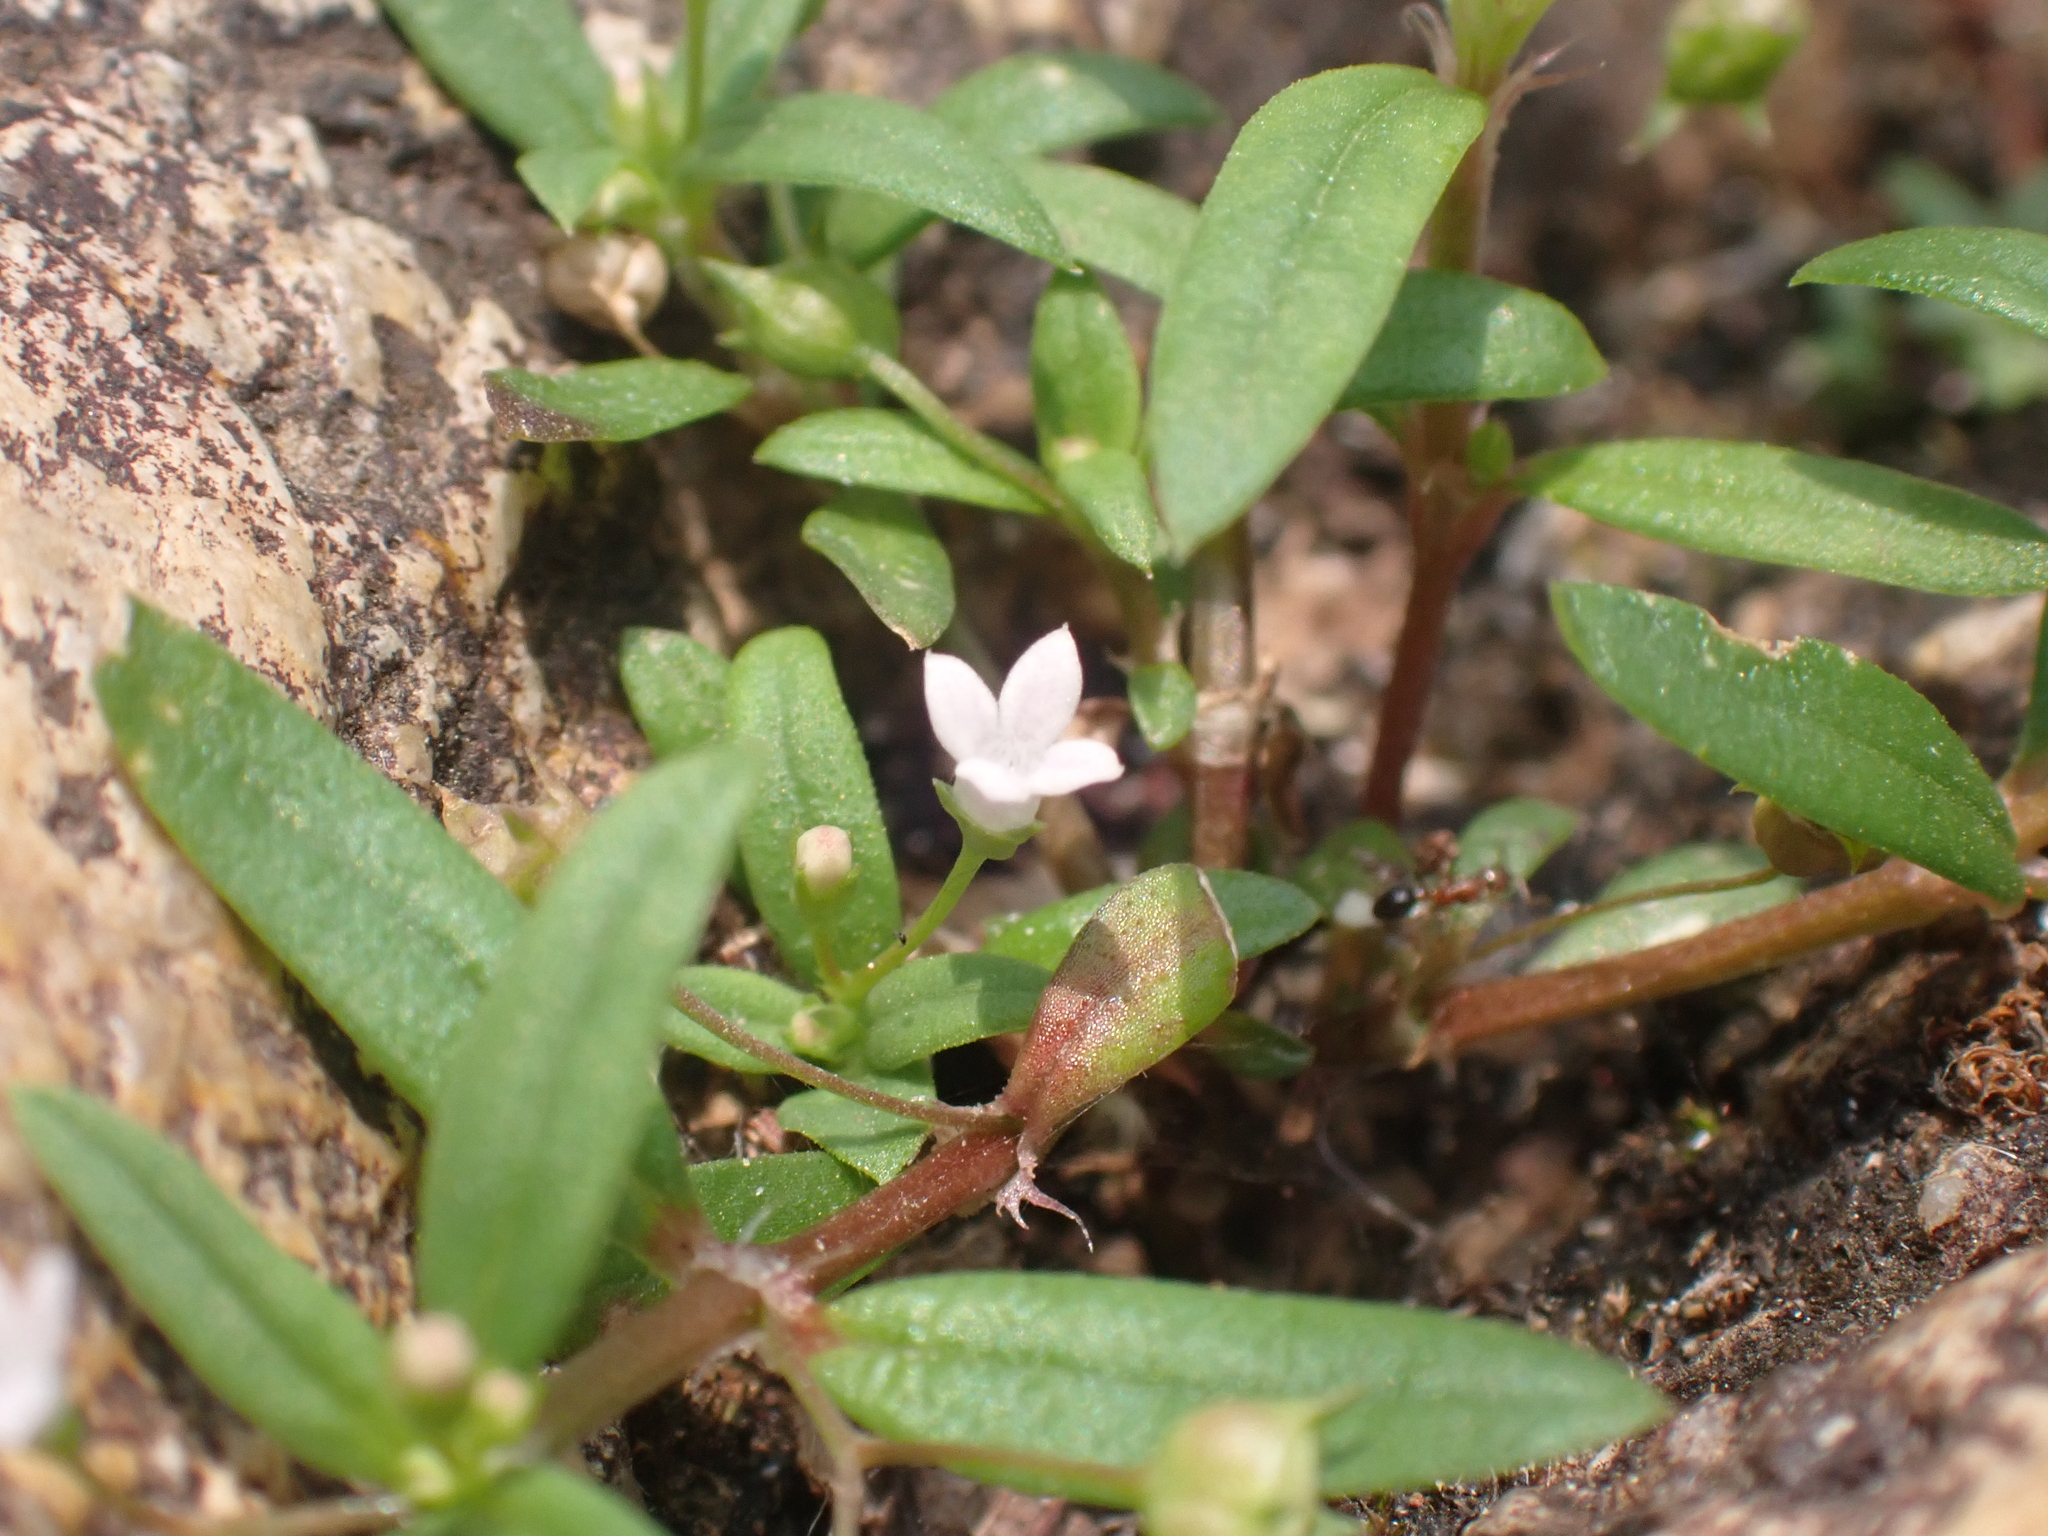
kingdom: Plantae
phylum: Tracheophyta
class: Magnoliopsida
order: Gentianales
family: Rubiaceae
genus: Oldenlandia
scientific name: Oldenlandia corymbosa
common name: Flat-top mille graines
